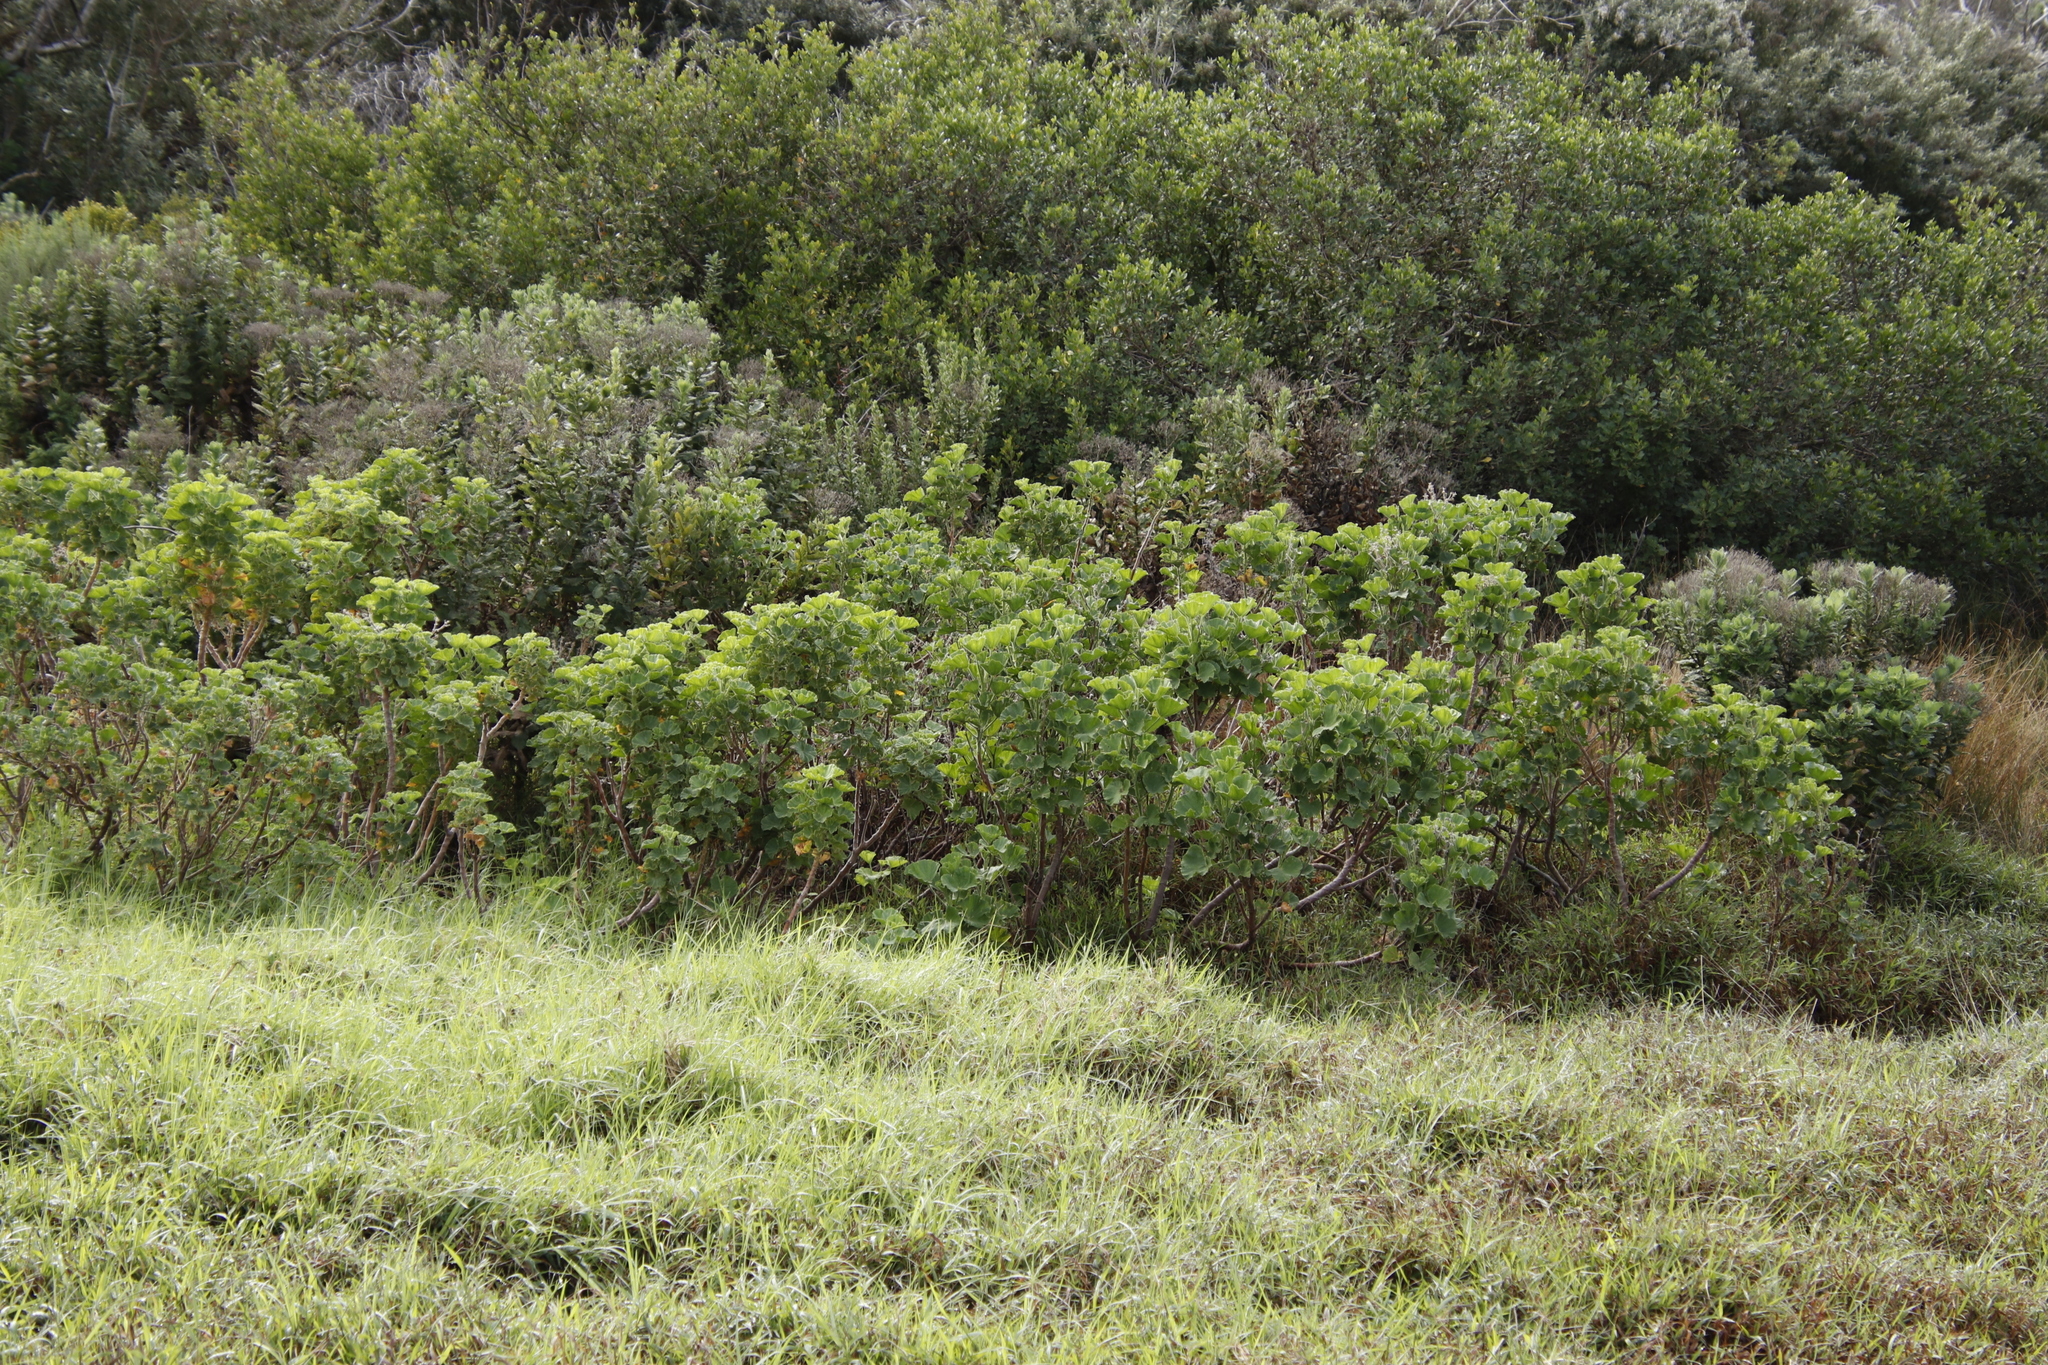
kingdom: Plantae
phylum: Tracheophyta
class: Magnoliopsida
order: Geraniales
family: Geraniaceae
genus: Pelargonium
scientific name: Pelargonium cucullatum
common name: Tree pelargonium
